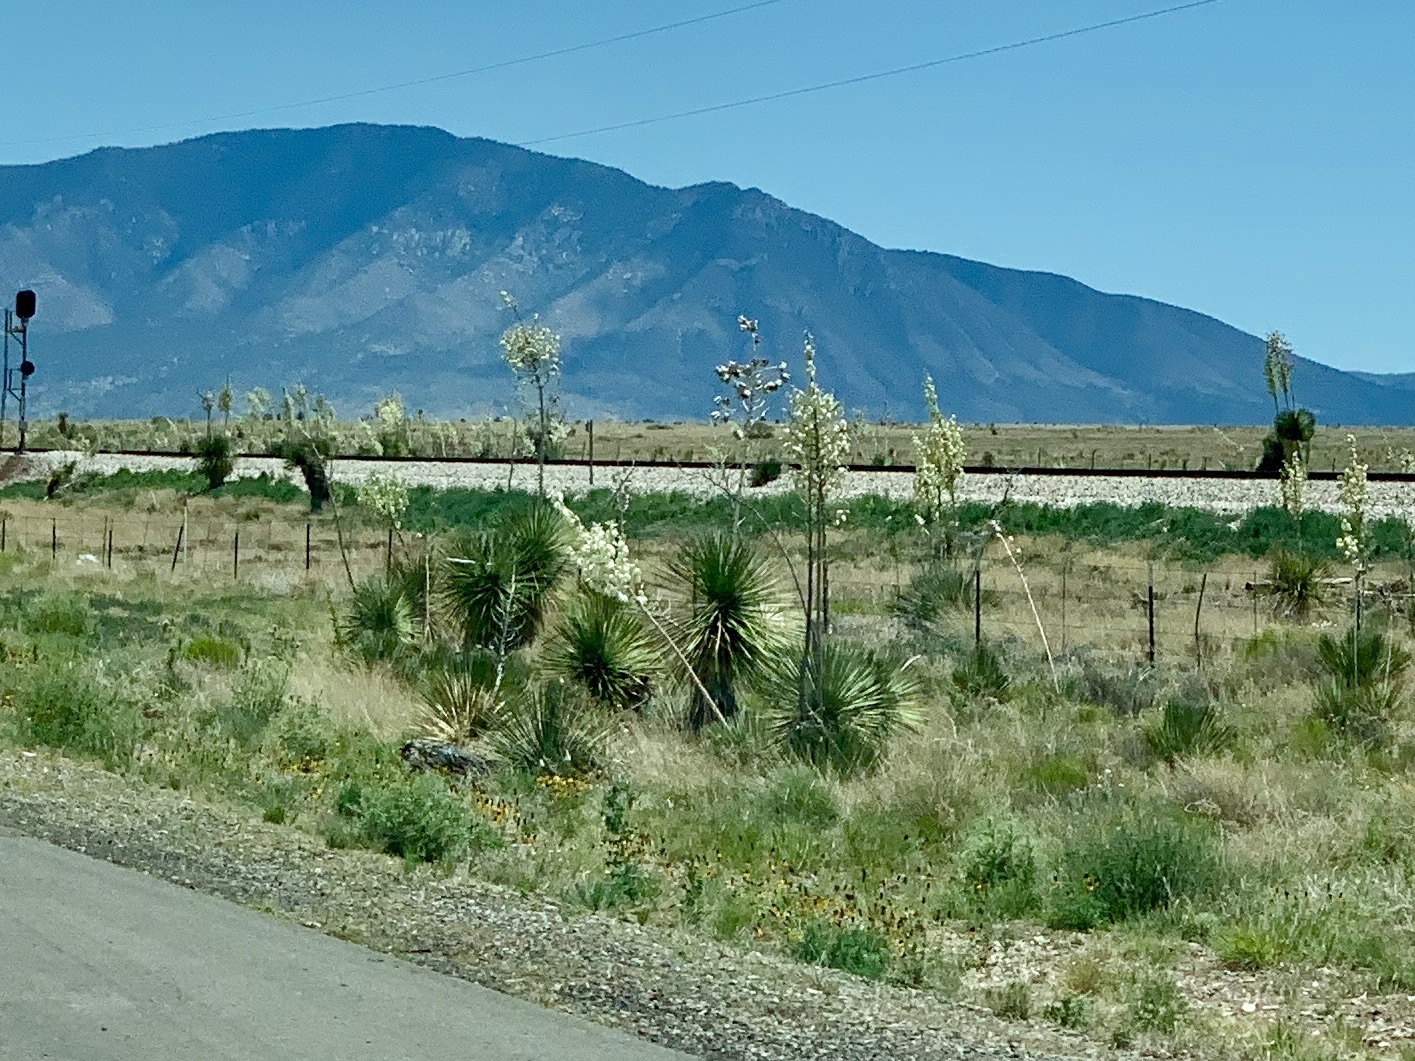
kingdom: Plantae
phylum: Tracheophyta
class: Liliopsida
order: Asparagales
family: Asparagaceae
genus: Yucca
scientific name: Yucca elata
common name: Palmella
